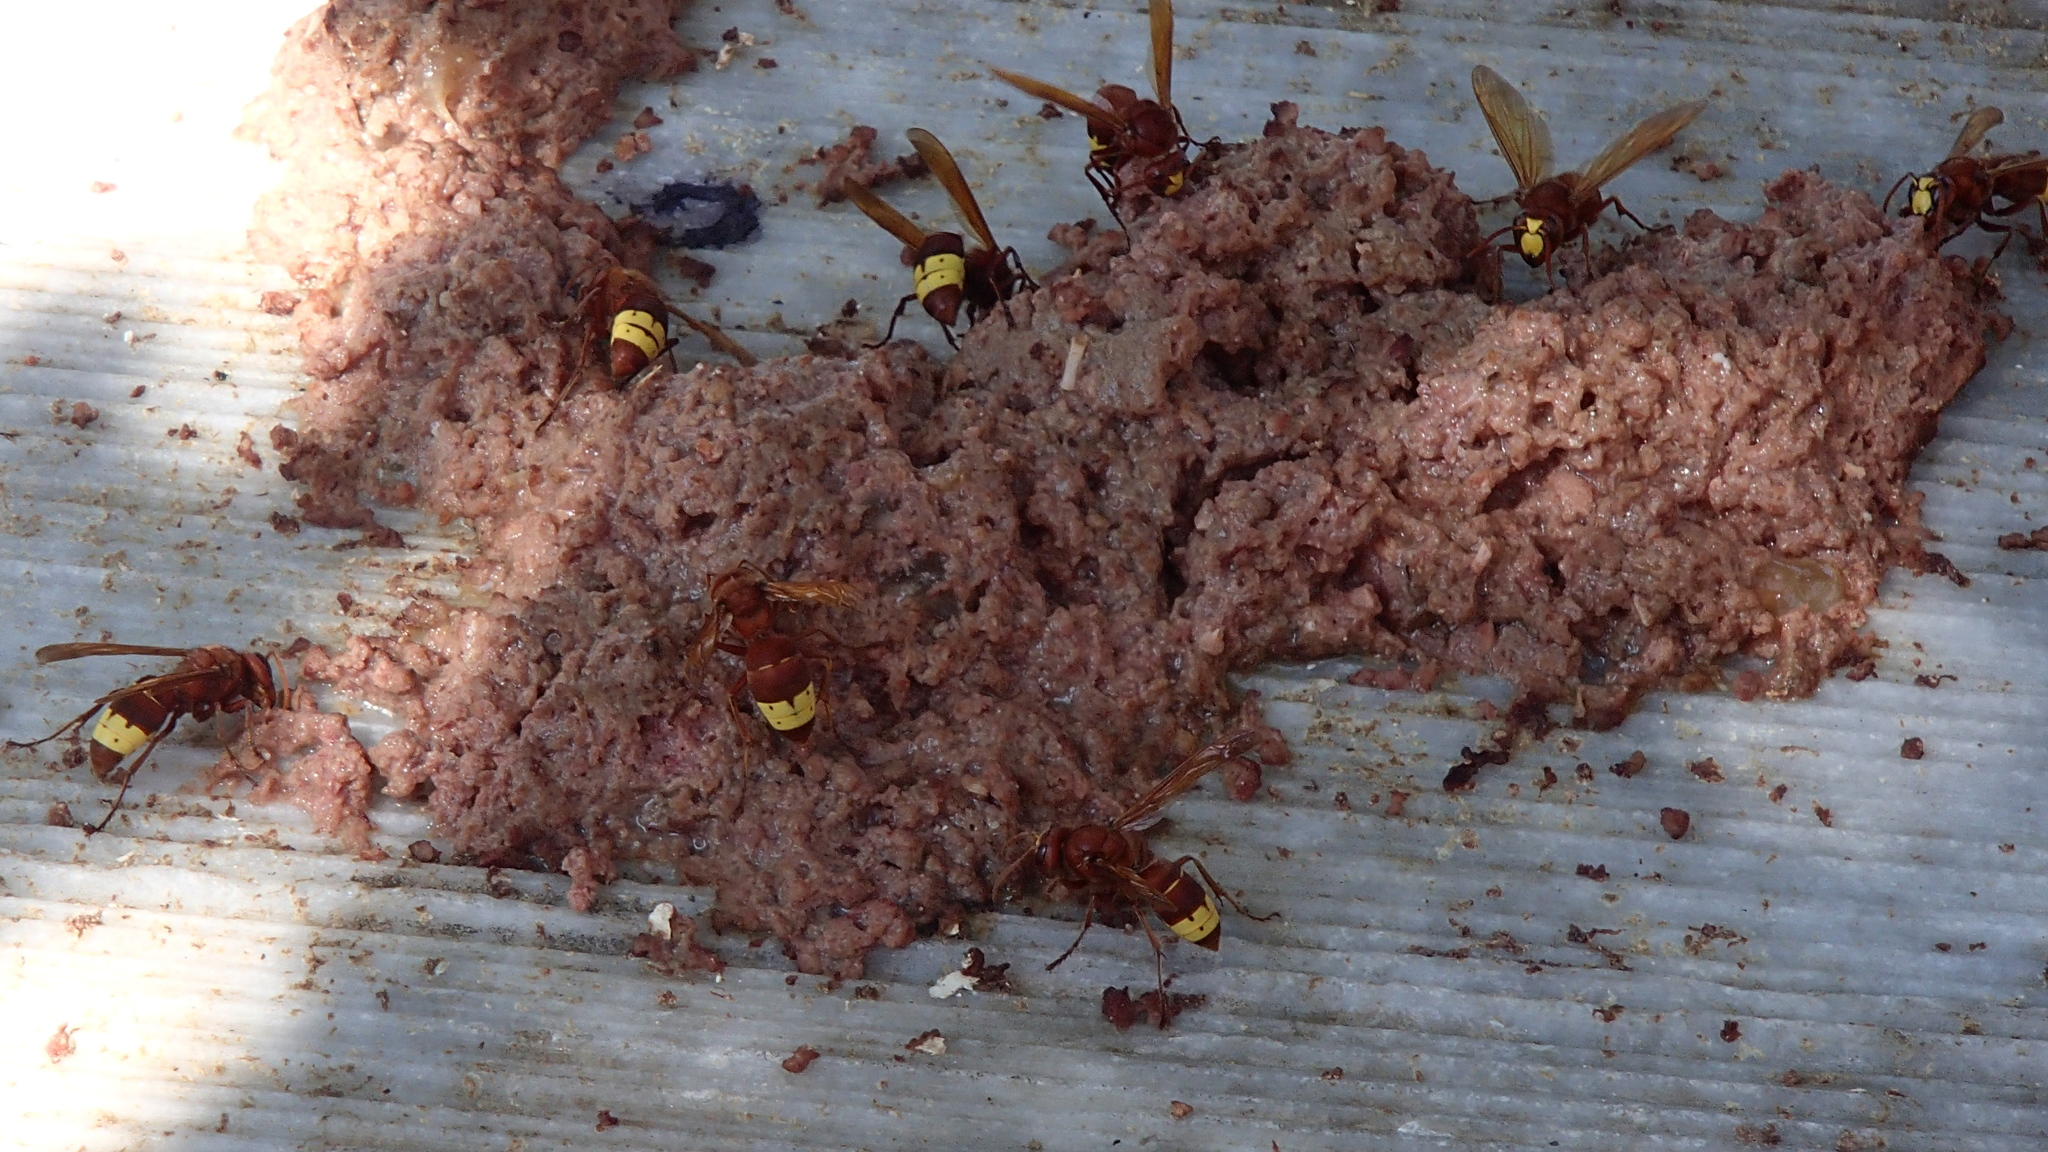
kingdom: Animalia
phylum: Arthropoda
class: Insecta
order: Hymenoptera
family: Vespidae
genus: Vespa
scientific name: Vespa orientalis
